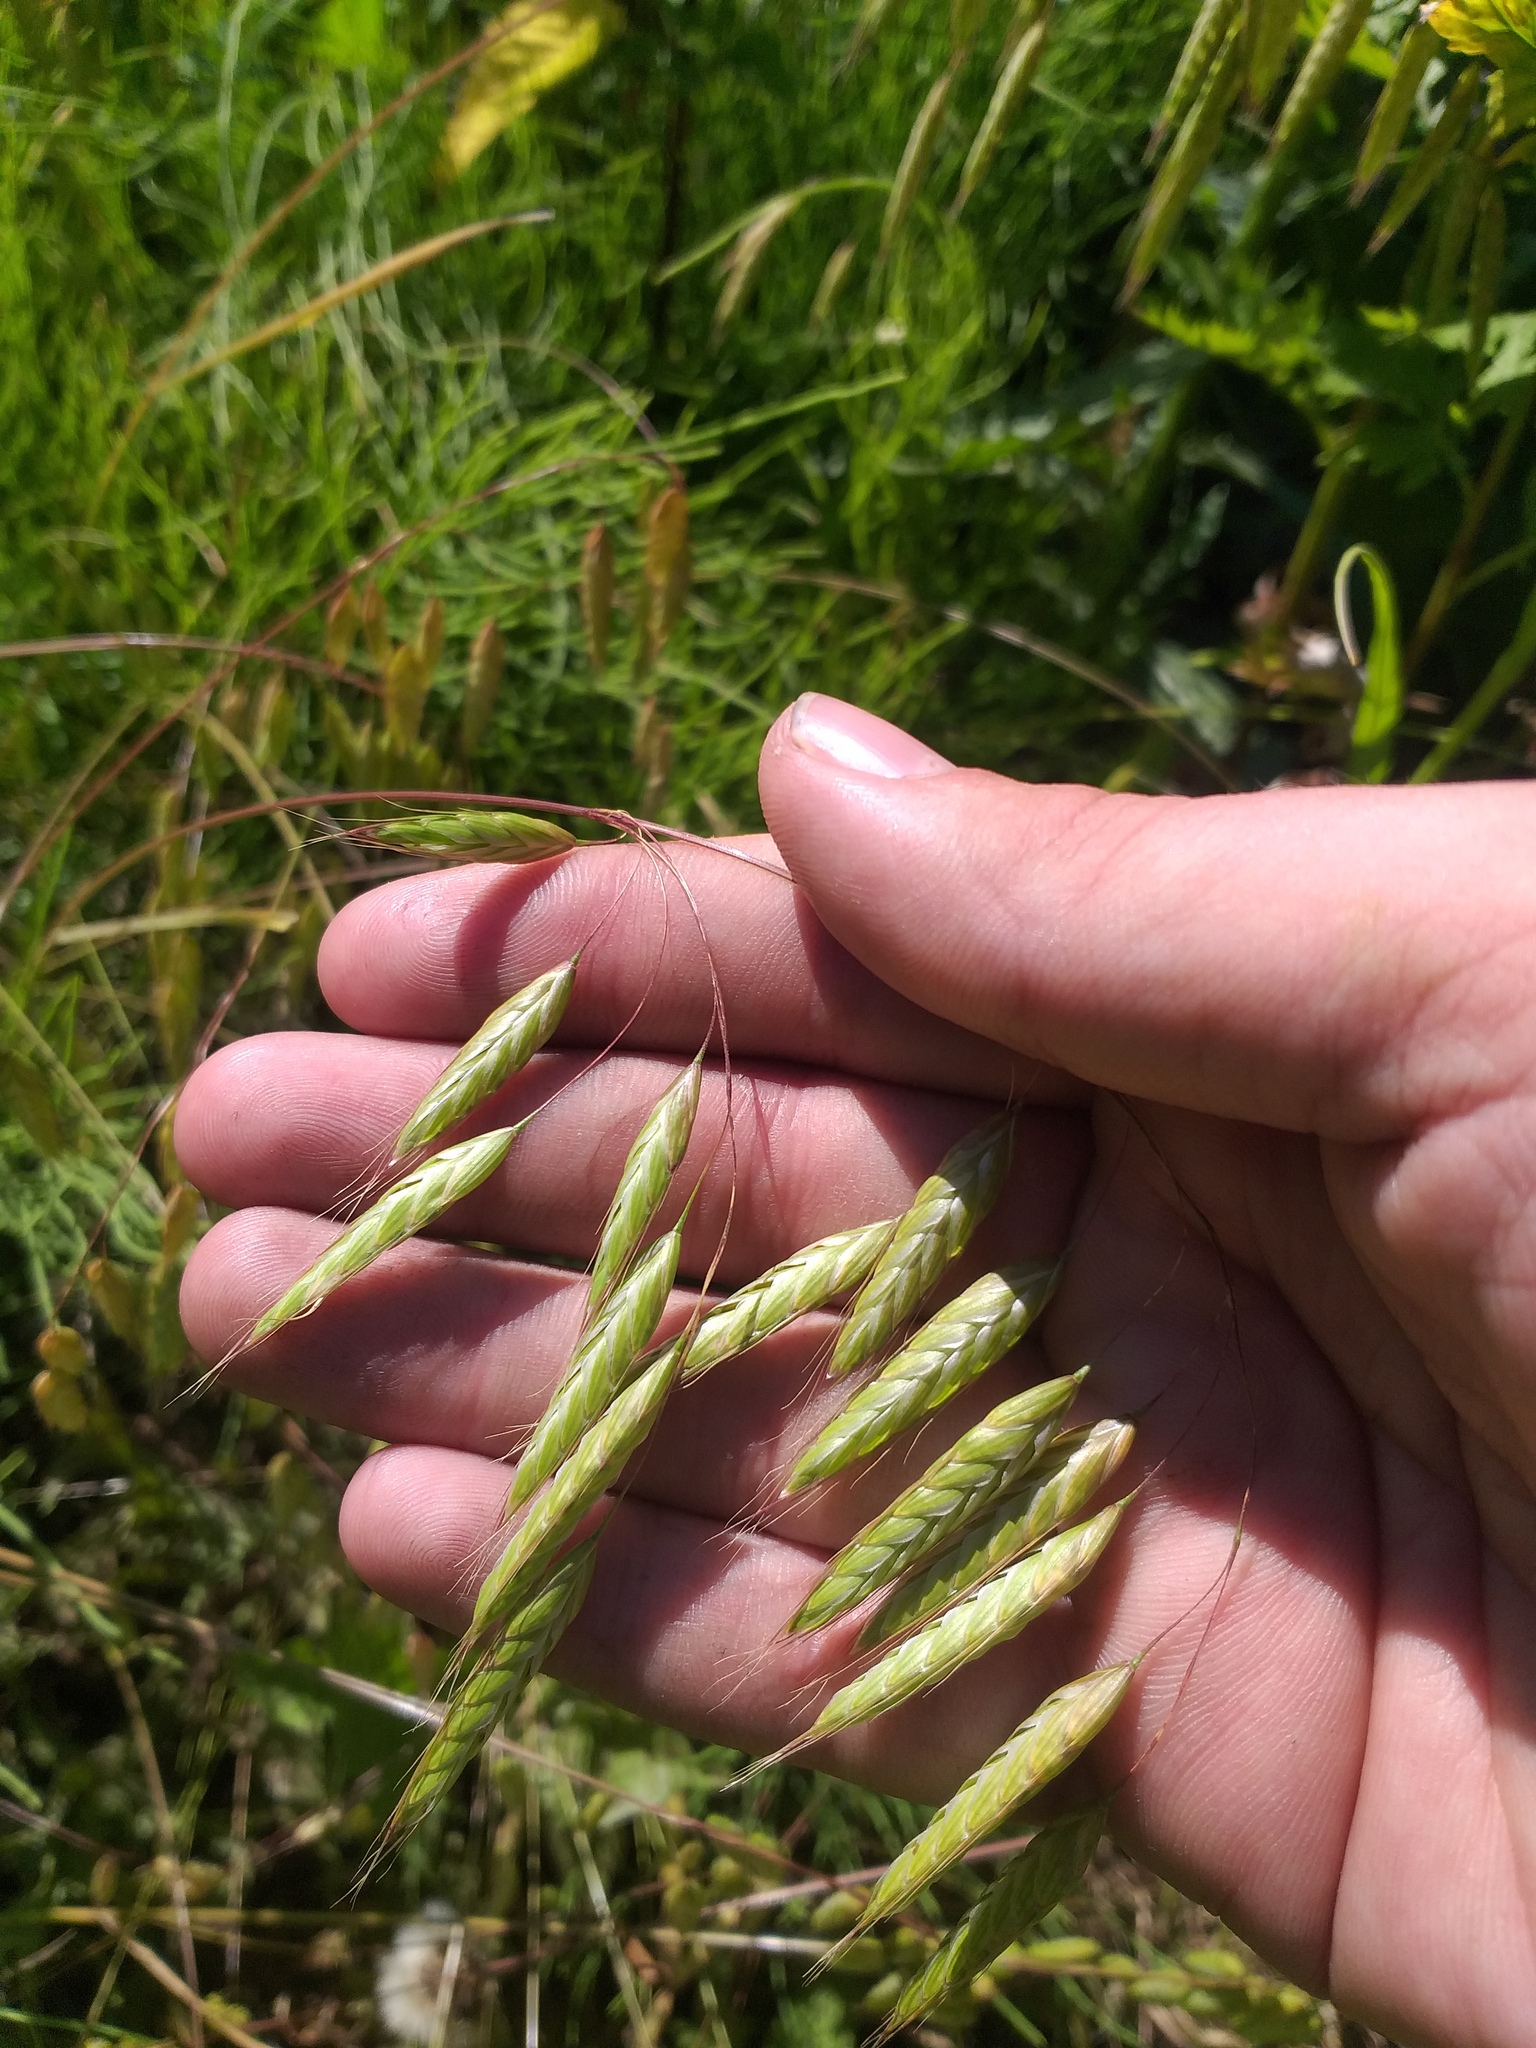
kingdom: Plantae
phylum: Tracheophyta
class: Liliopsida
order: Poales
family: Poaceae
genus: Bromus
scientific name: Bromus squarrosus
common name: Corn brome
